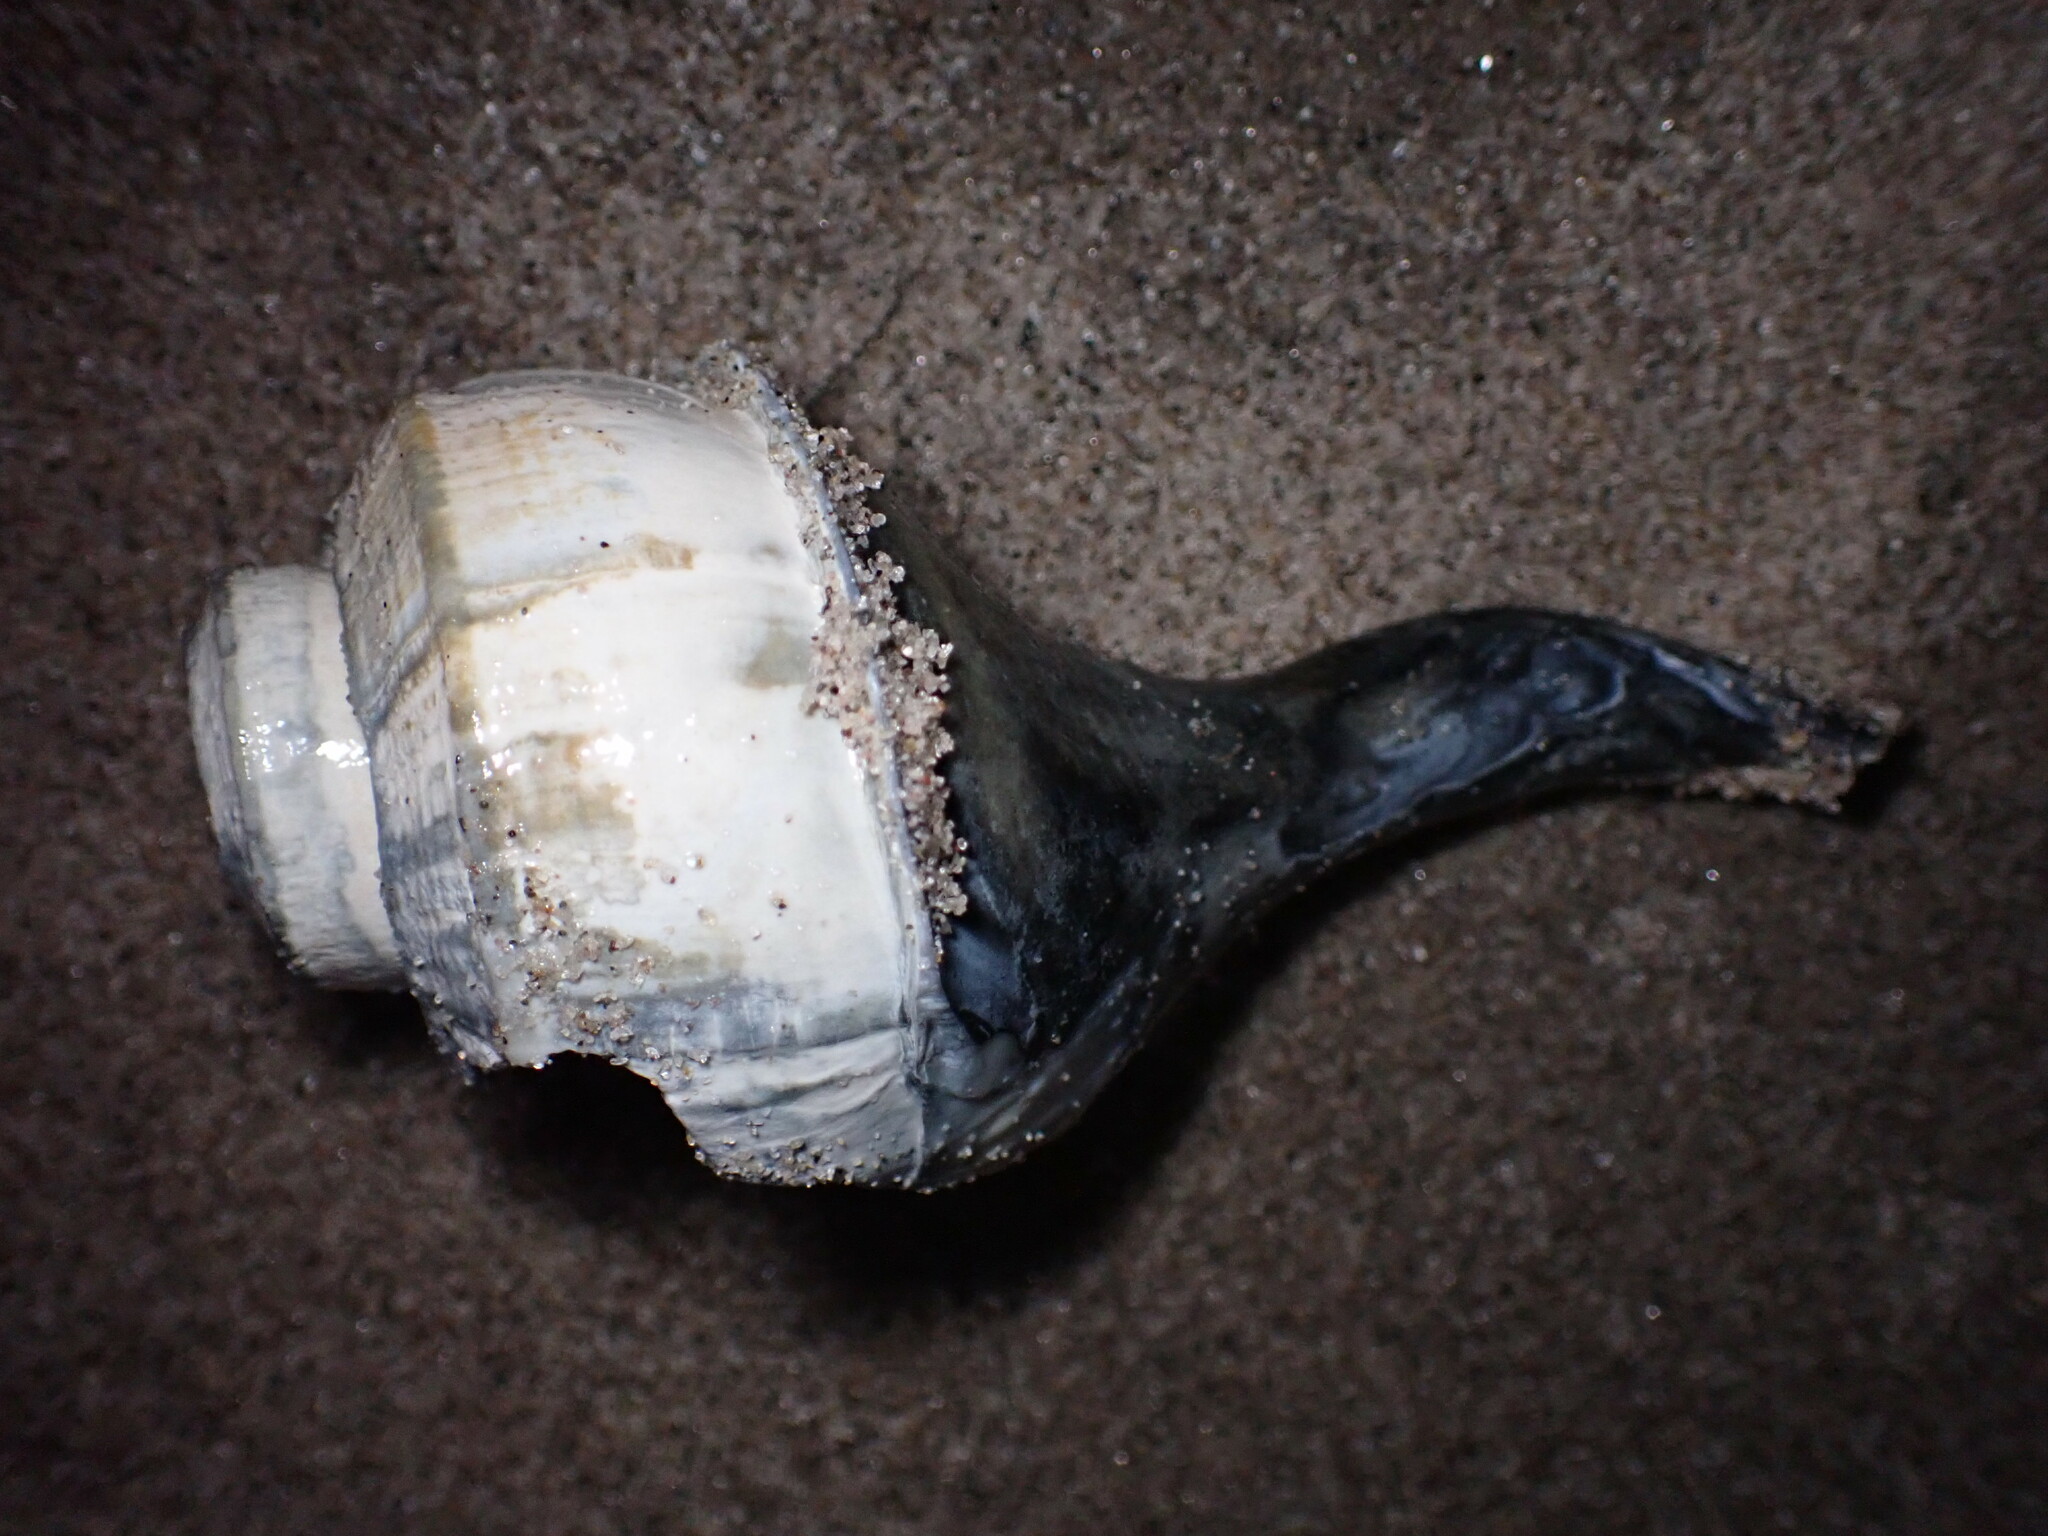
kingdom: Animalia
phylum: Mollusca
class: Gastropoda
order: Neogastropoda
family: Busyconidae
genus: Busycotypus
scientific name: Busycotypus canaliculatus
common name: Channeled whelk
